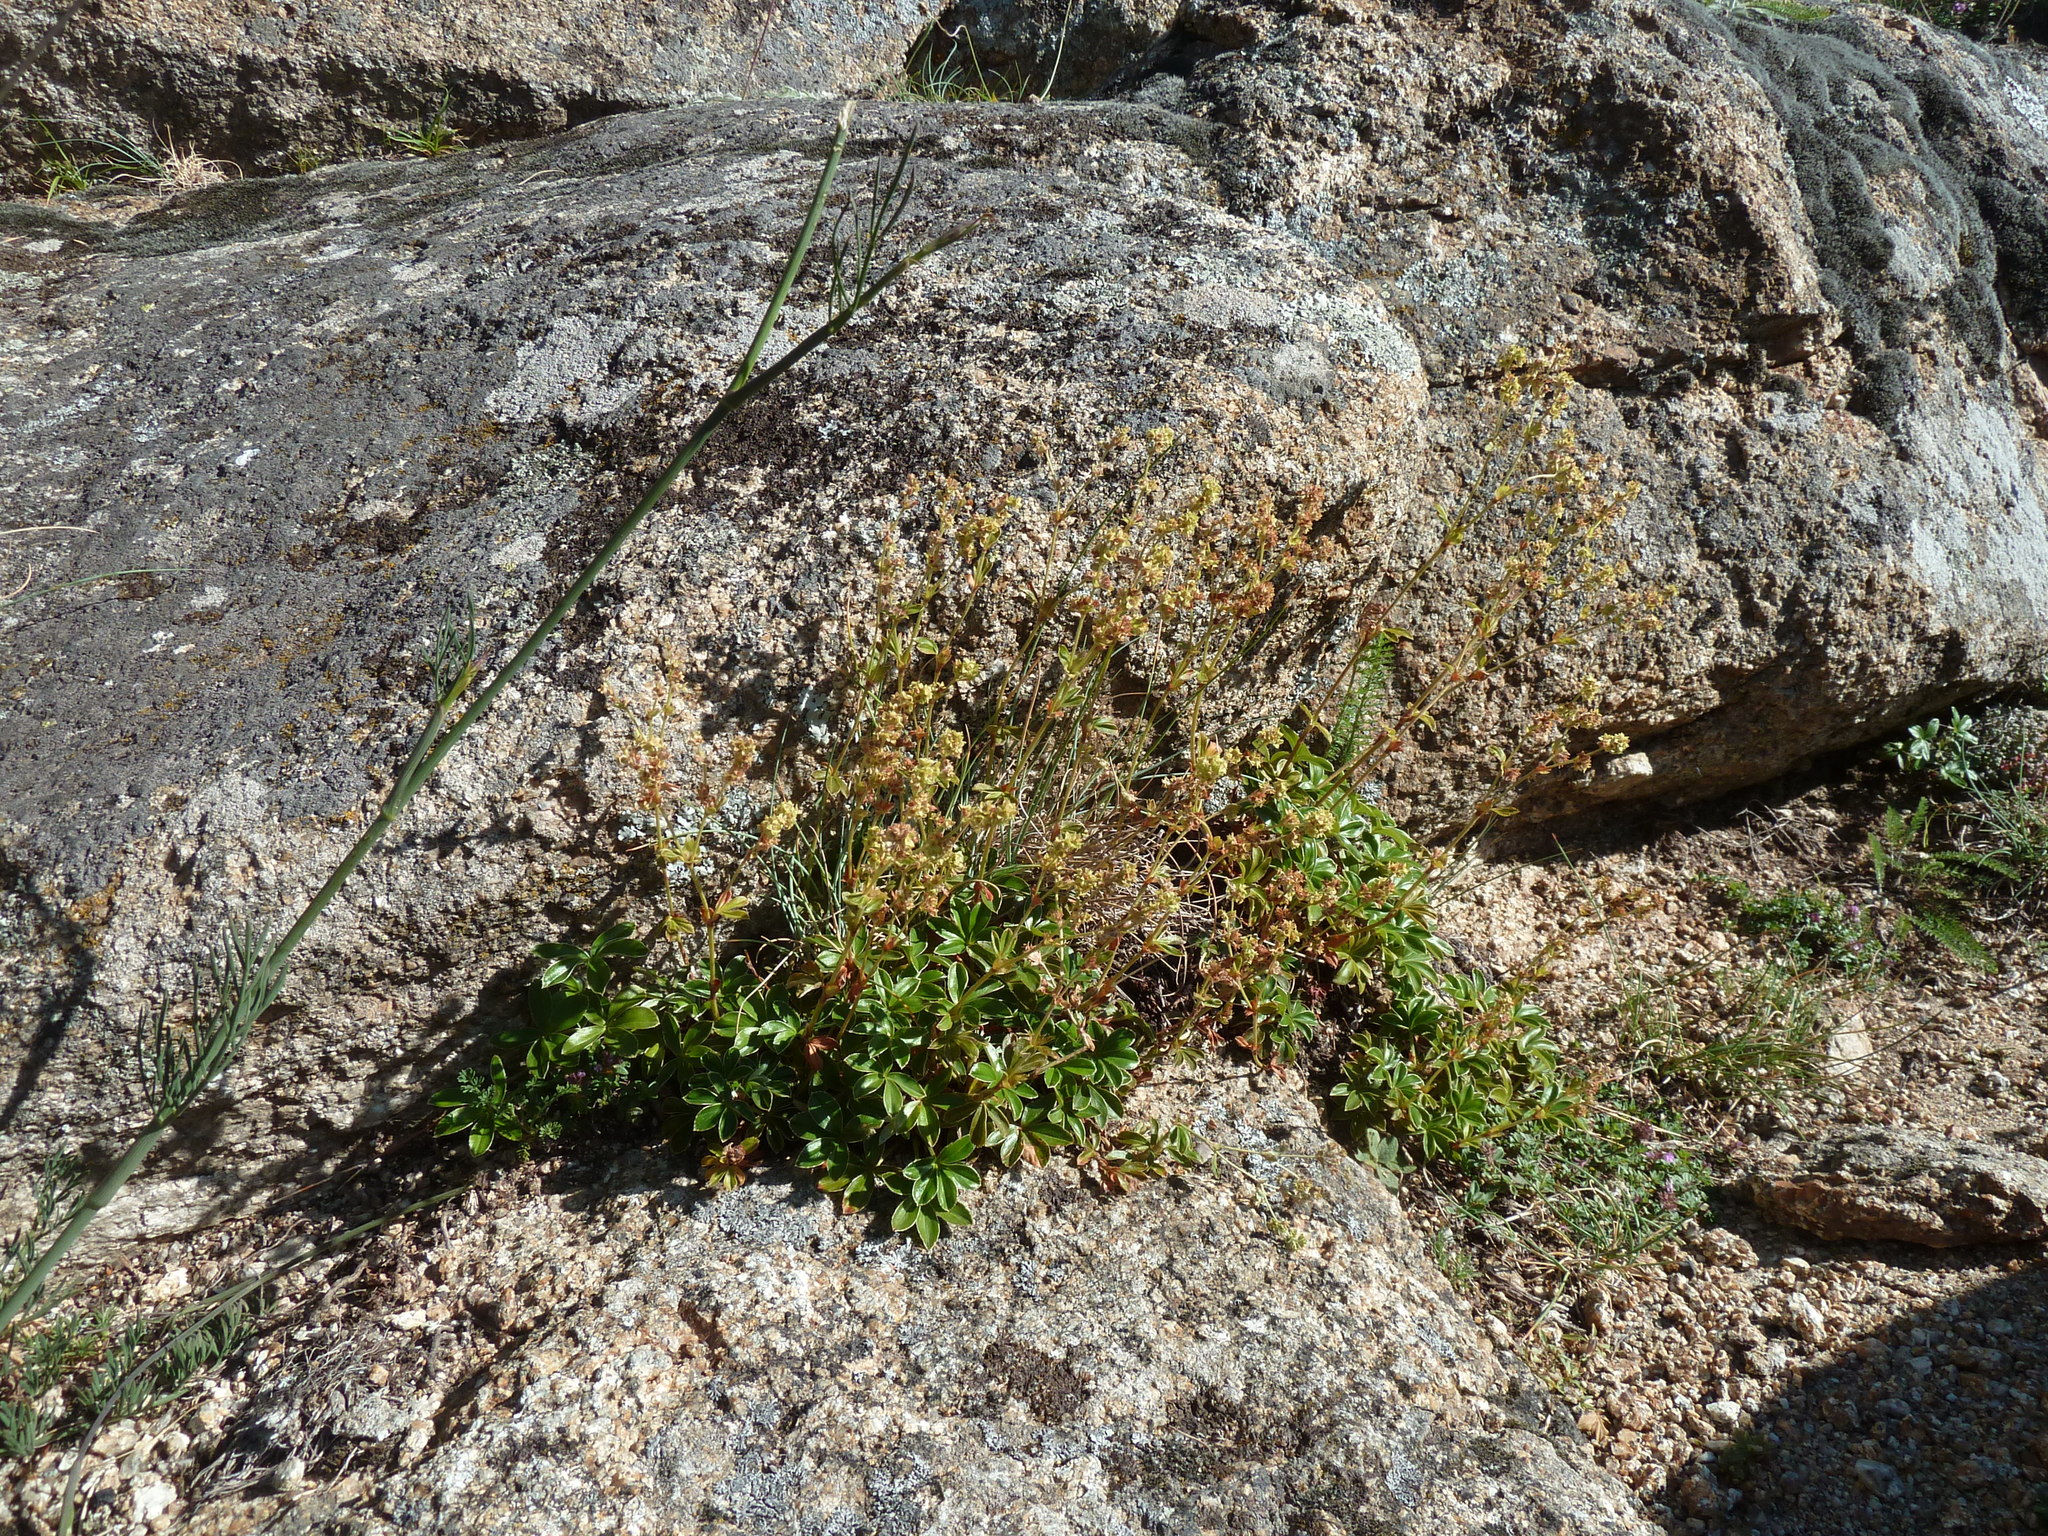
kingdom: Plantae
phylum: Tracheophyta
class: Magnoliopsida
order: Rosales
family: Rosaceae
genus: Alchemilla
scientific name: Alchemilla saxatilis
